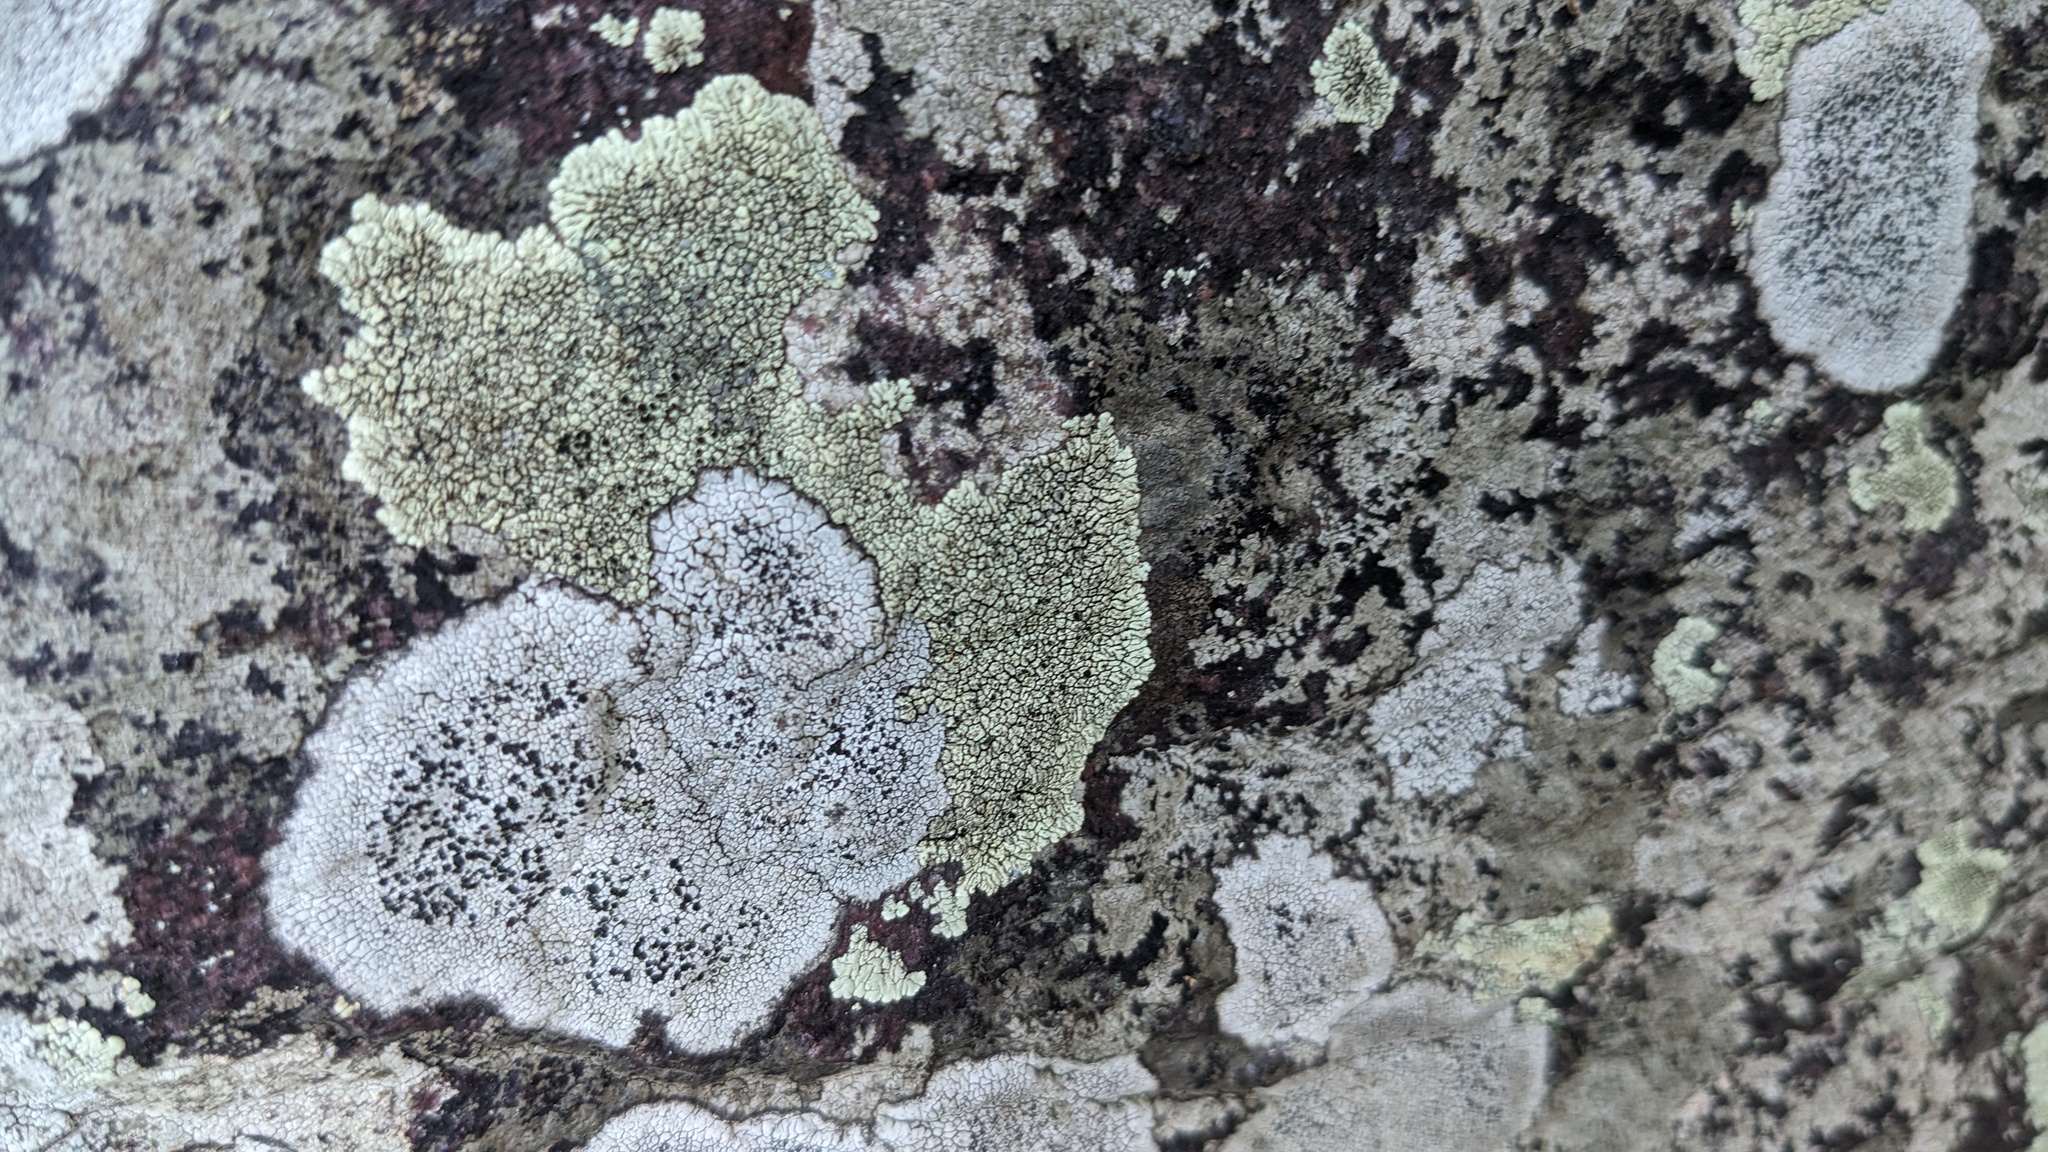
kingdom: Fungi
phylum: Ascomycota
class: Lecanoromycetes
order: Caliciales
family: Caliciaceae
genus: Dimelaena
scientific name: Dimelaena oreina
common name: Golden moonglow lichen
